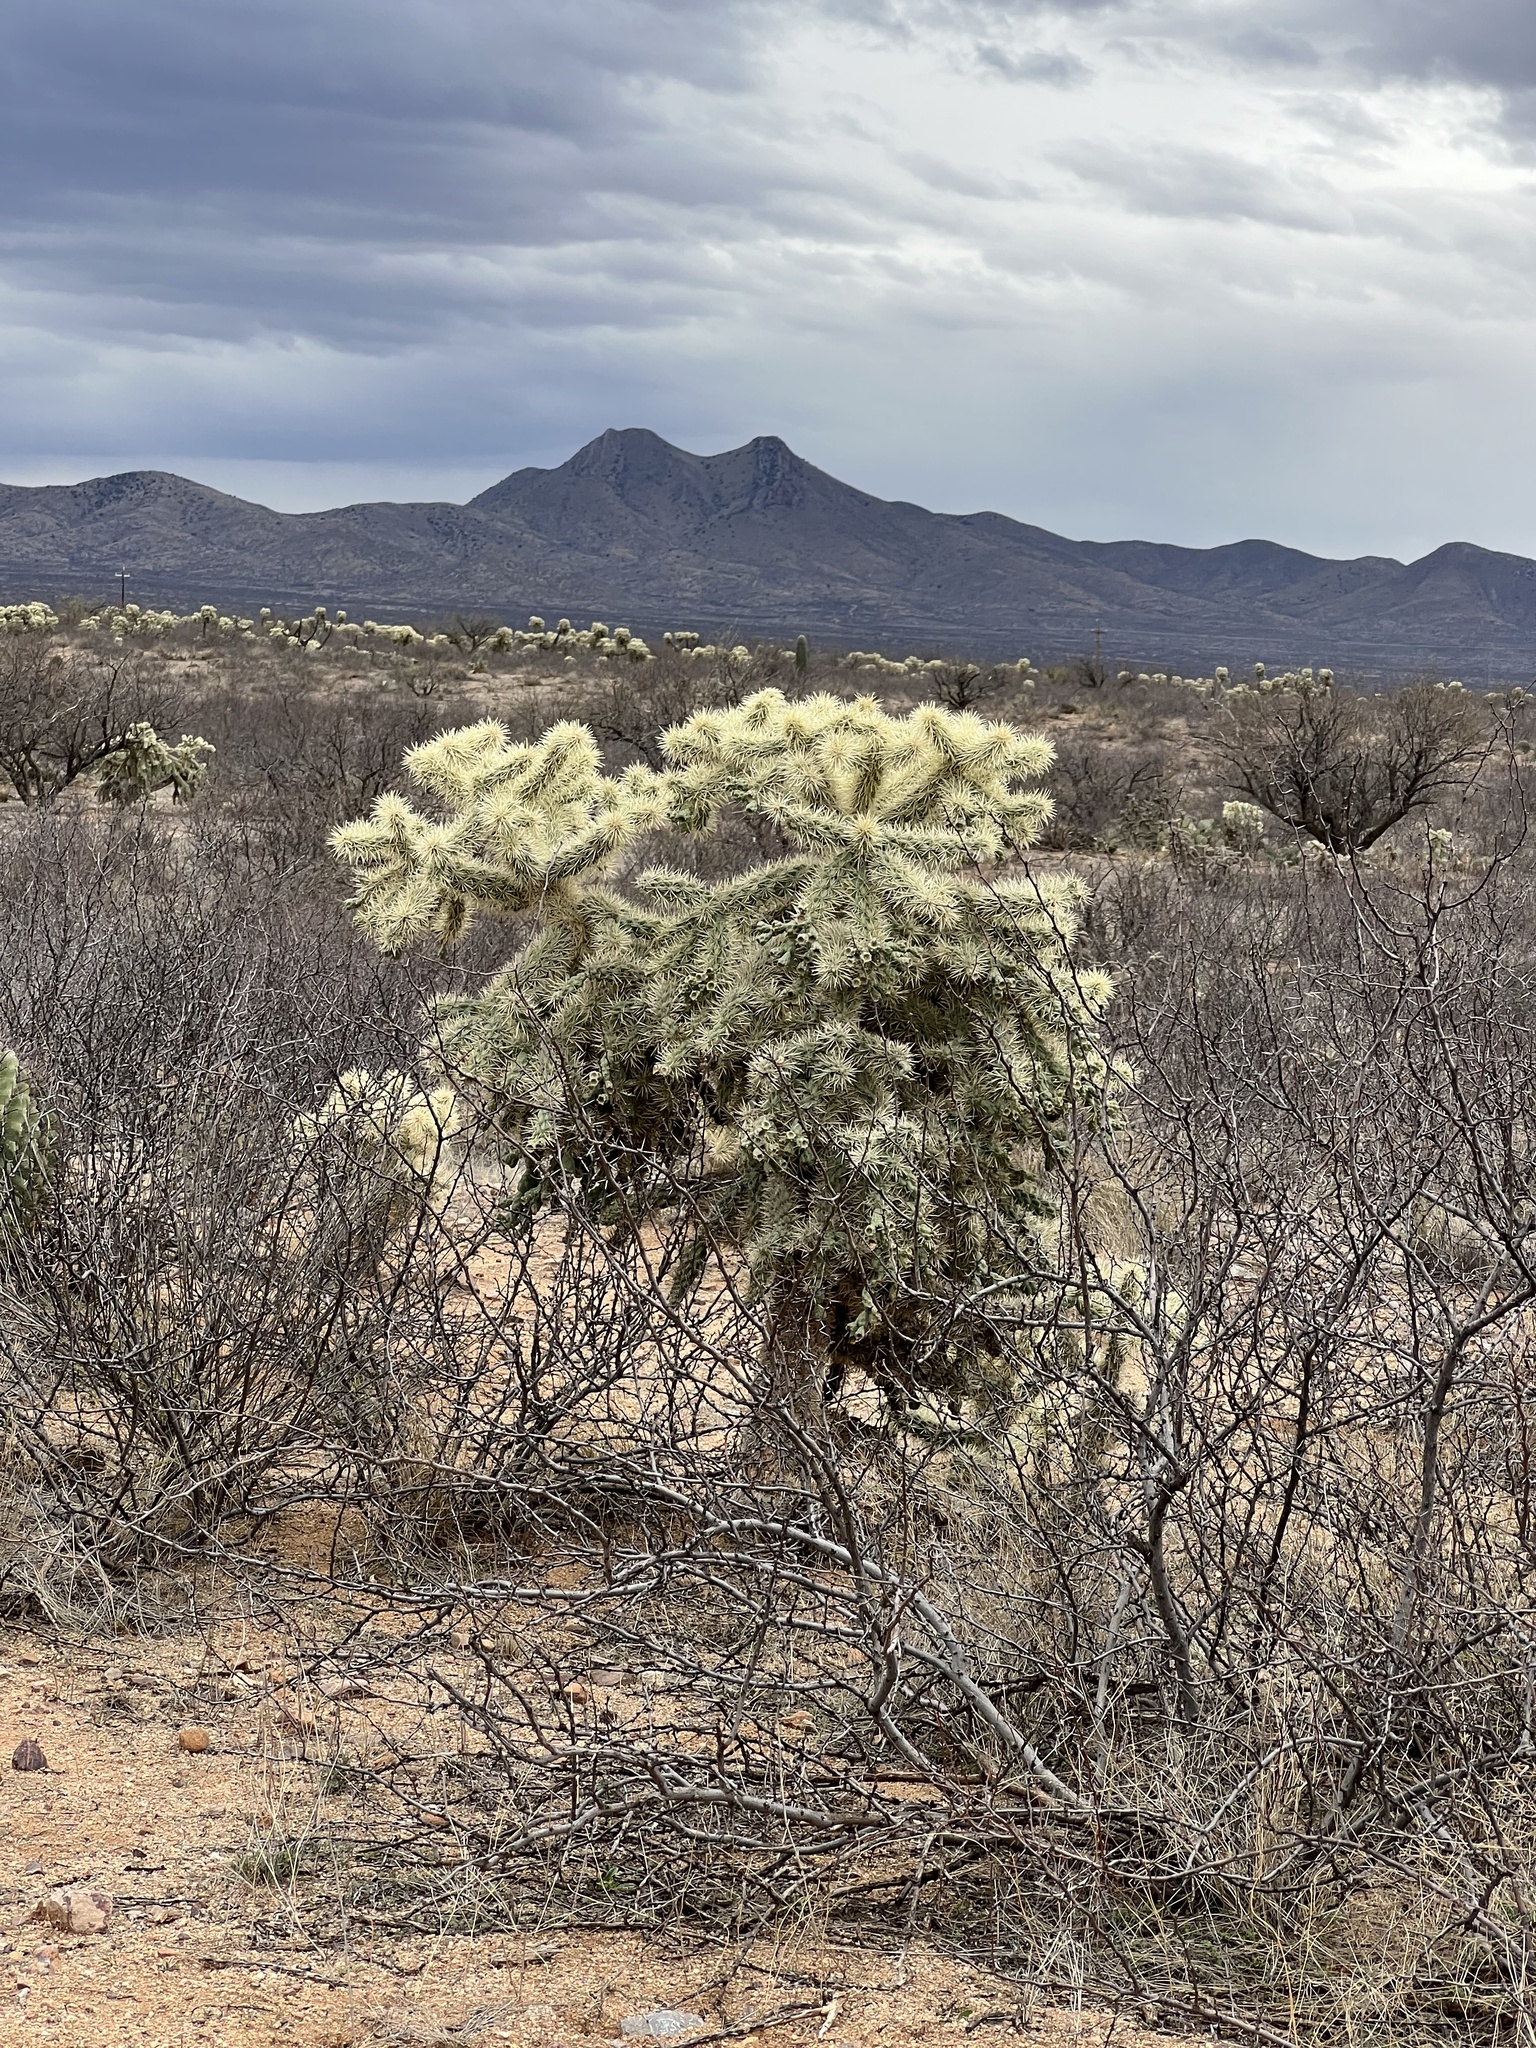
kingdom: Plantae
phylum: Tracheophyta
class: Magnoliopsida
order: Caryophyllales
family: Cactaceae
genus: Cylindropuntia
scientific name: Cylindropuntia fulgida
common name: Jumping cholla
